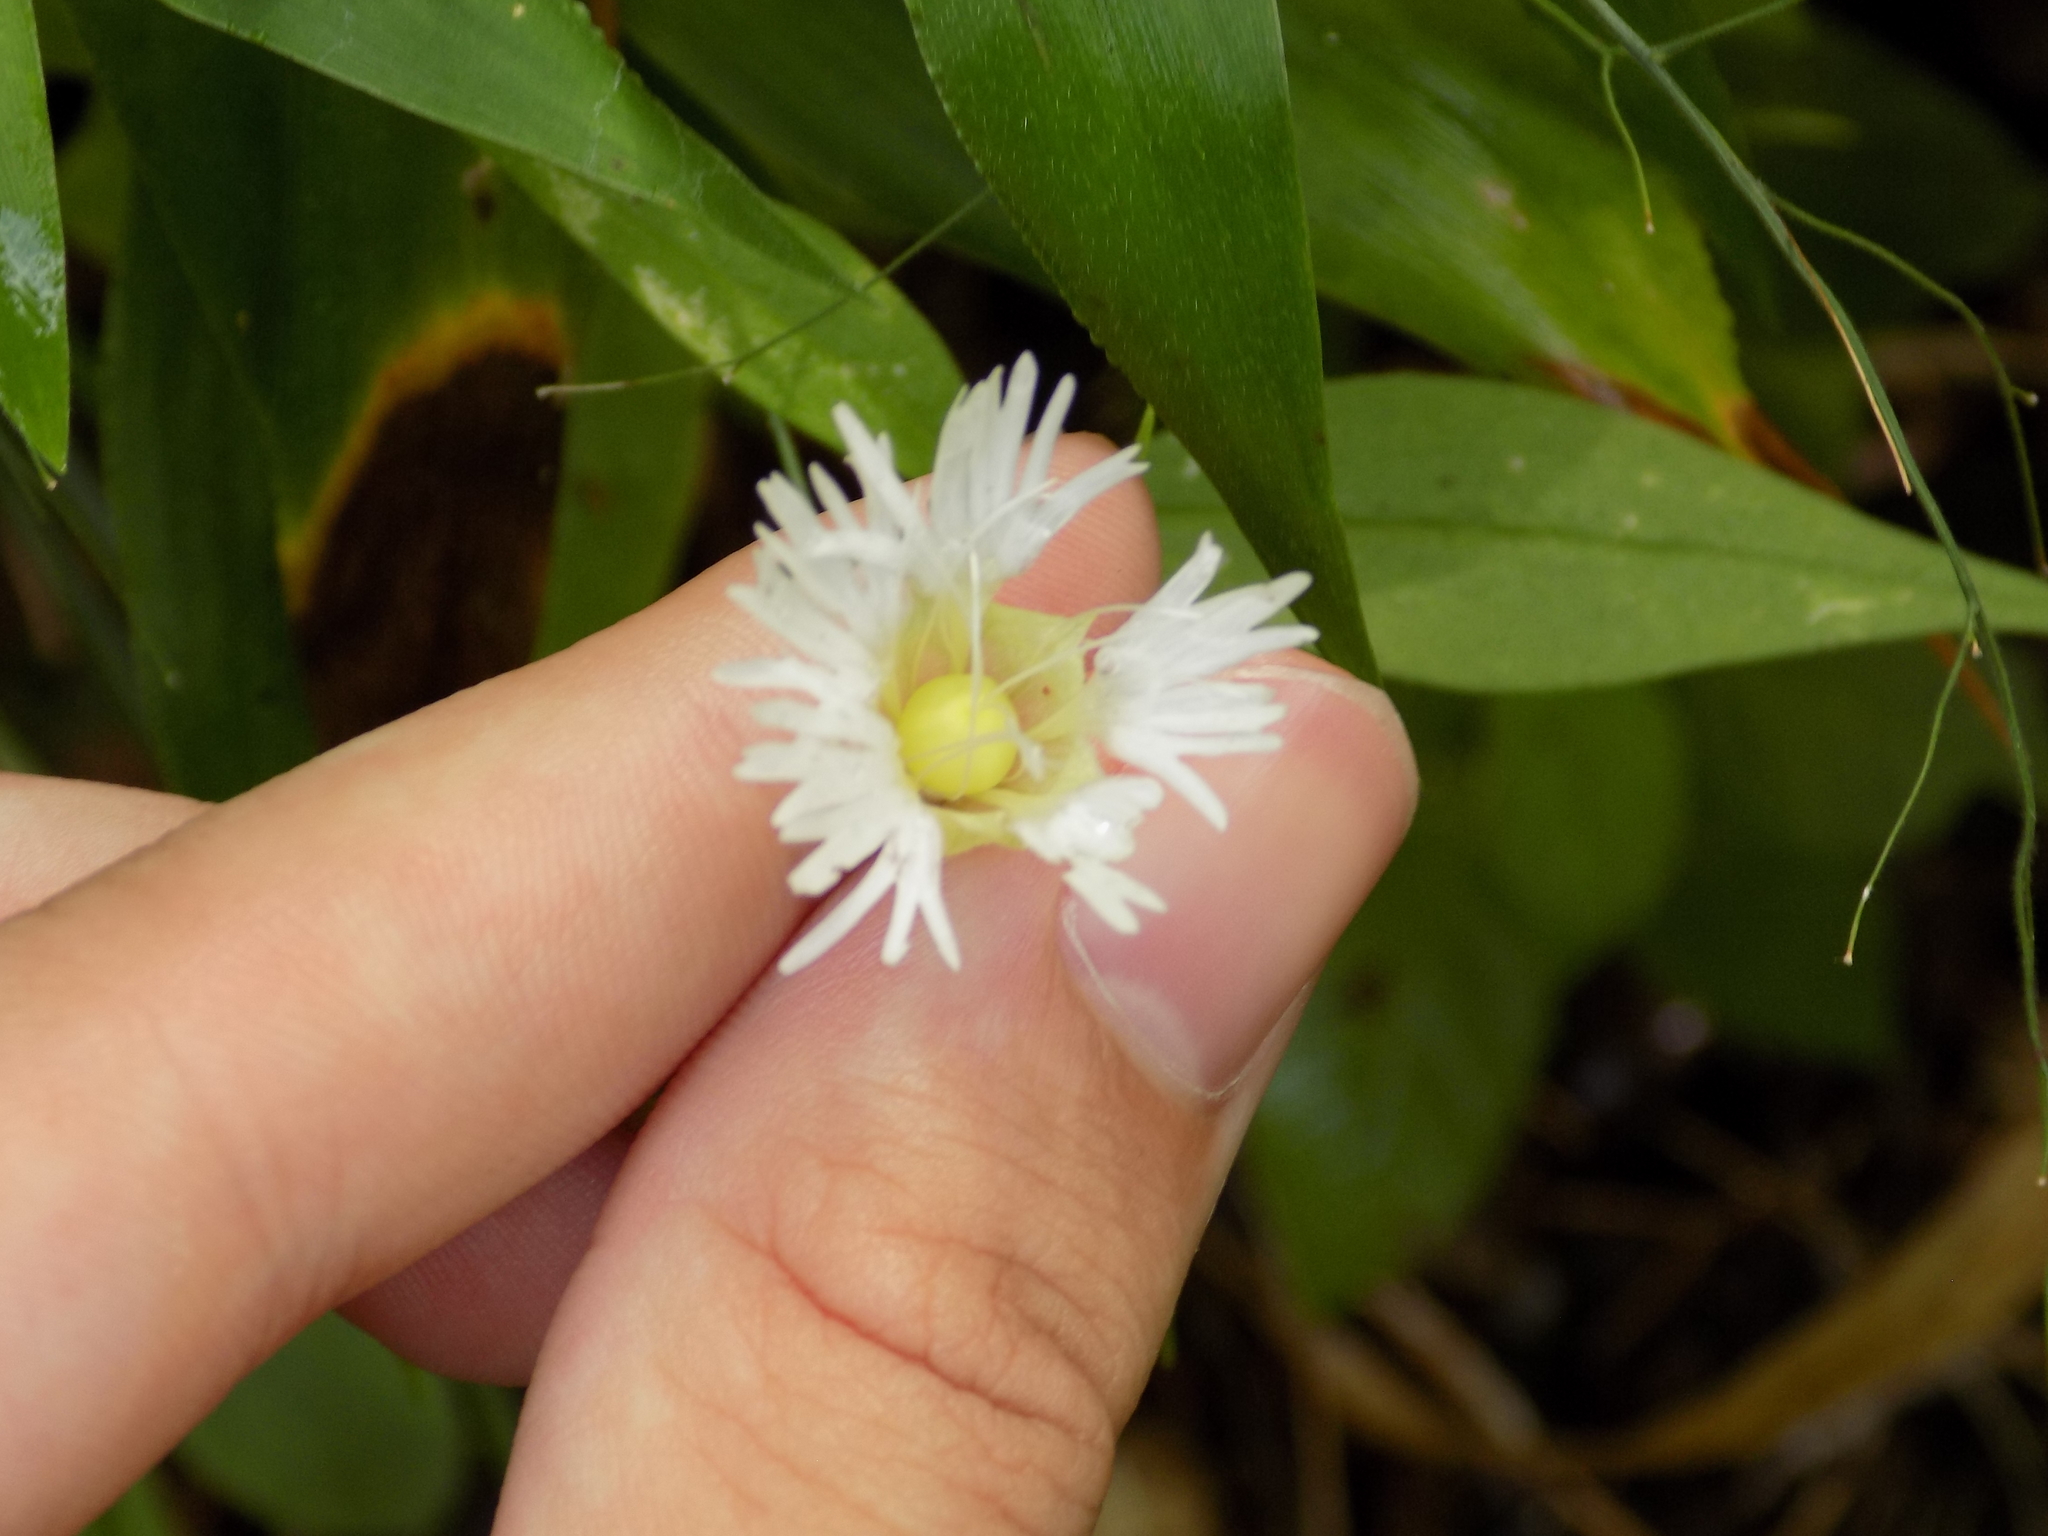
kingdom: Plantae
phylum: Tracheophyta
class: Magnoliopsida
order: Caryophyllales
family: Caryophyllaceae
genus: Silene
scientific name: Silene stellata
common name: Starry campion
